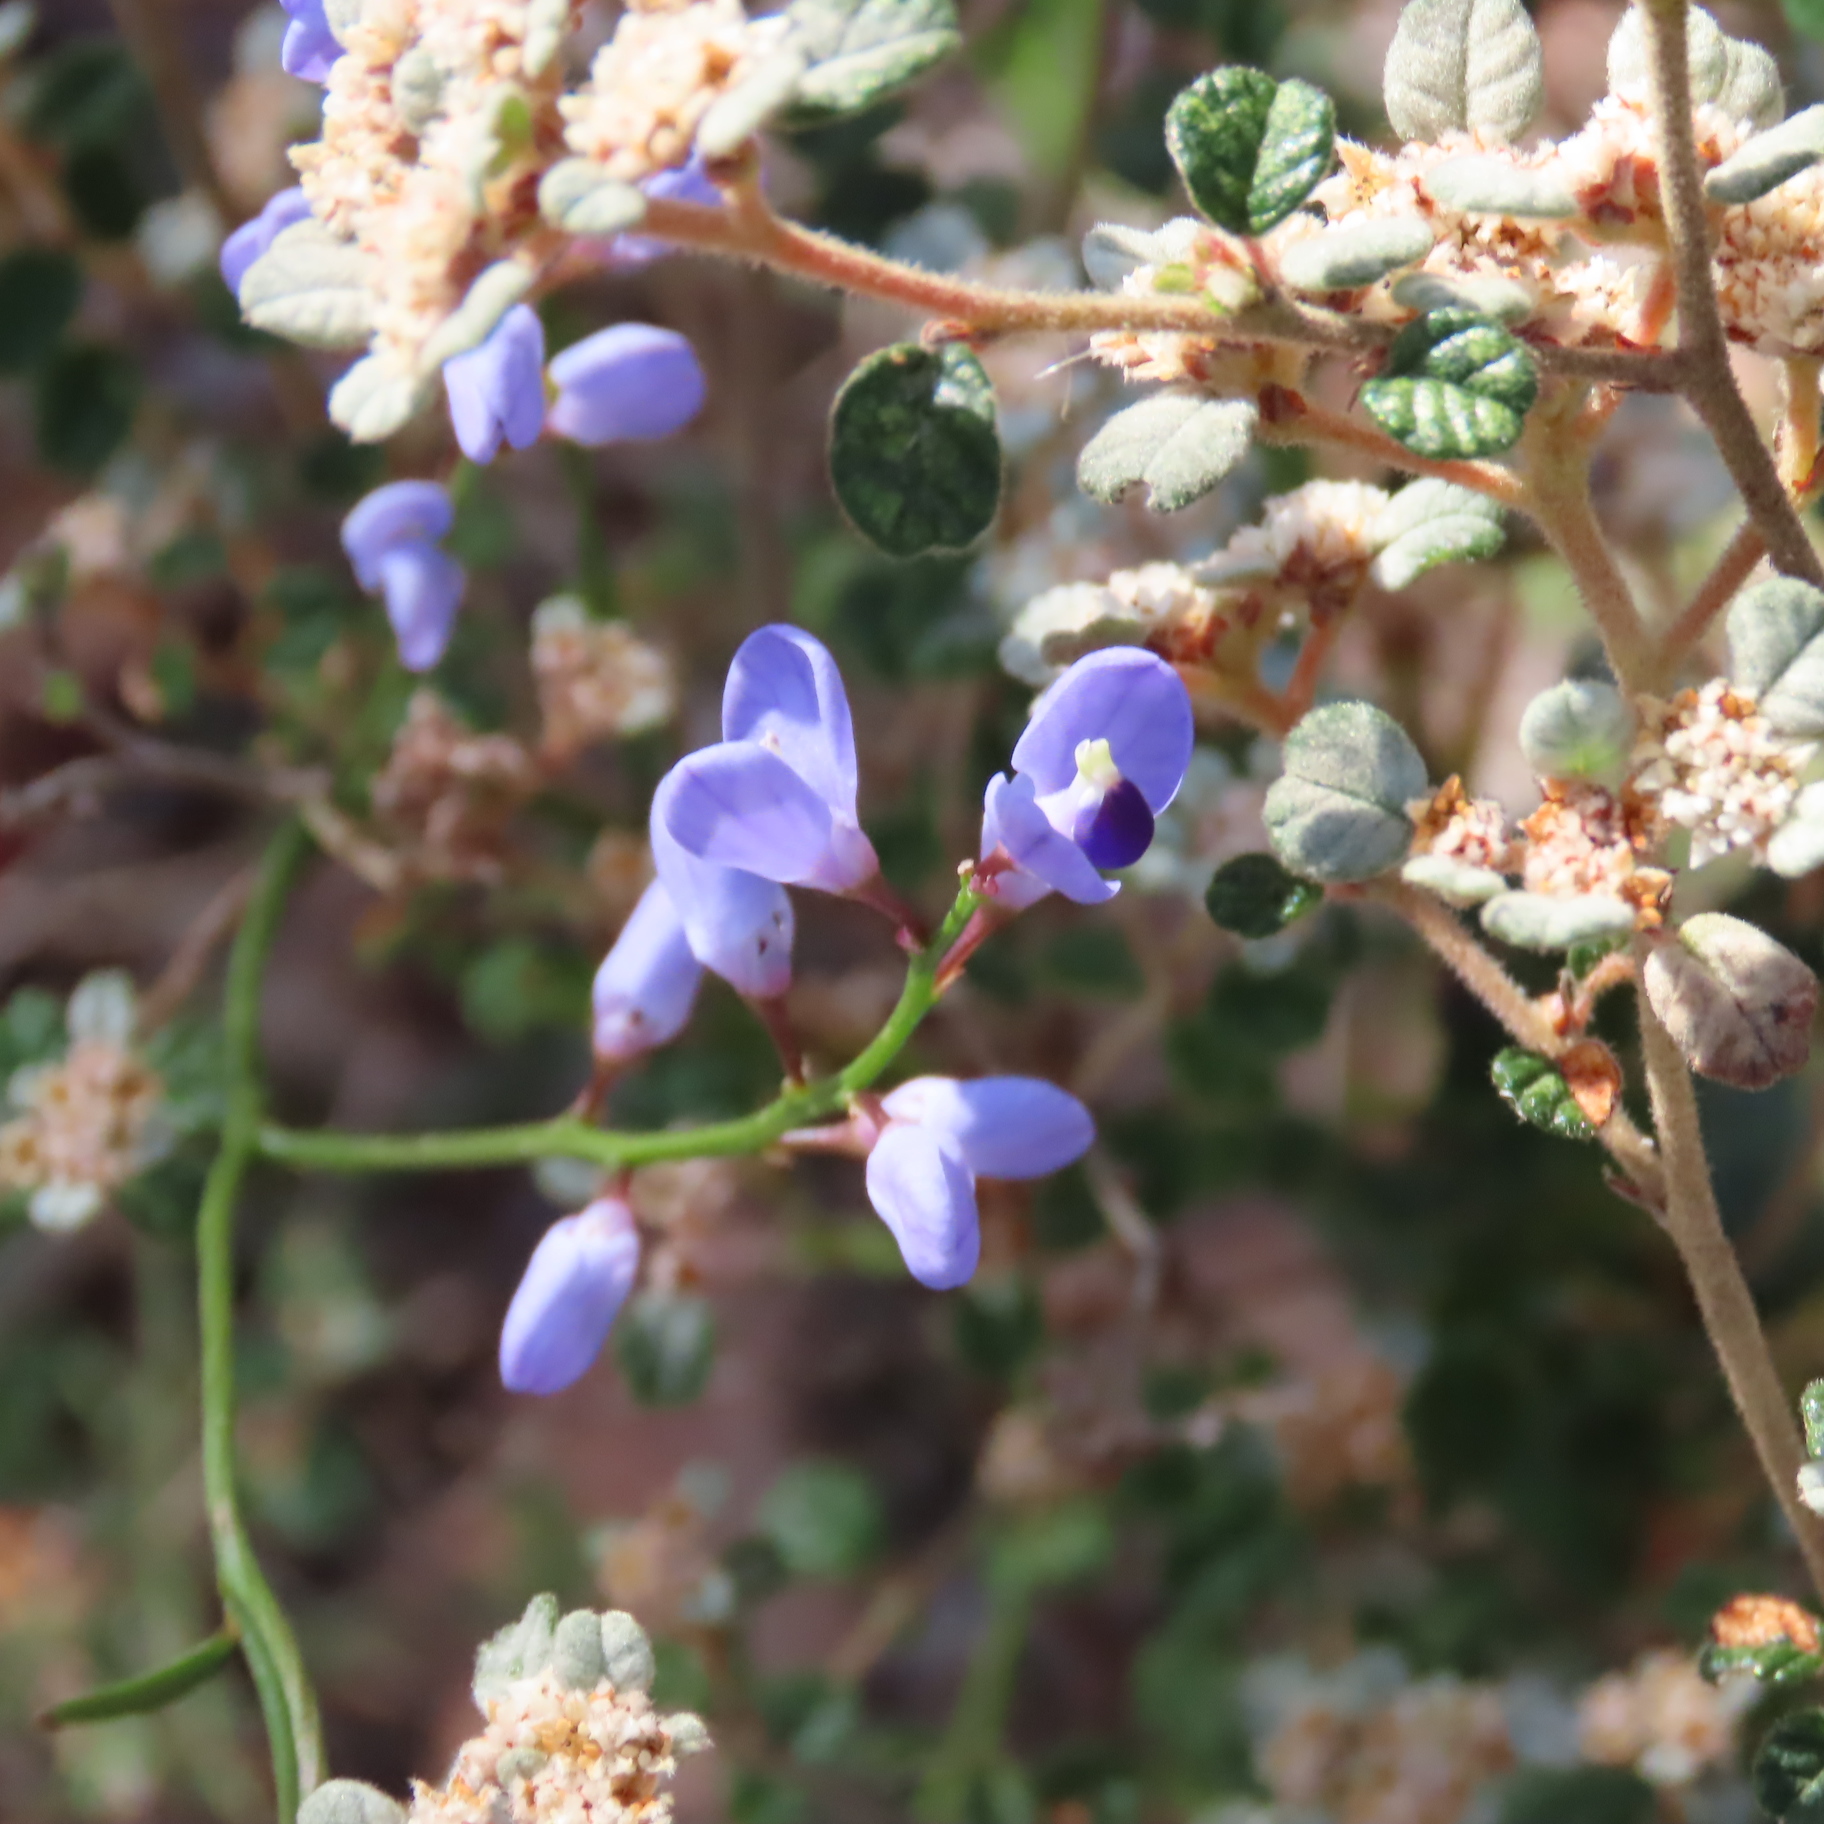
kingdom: Plantae
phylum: Tracheophyta
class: Magnoliopsida
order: Fabales
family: Polygalaceae
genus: Comesperma
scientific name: Comesperma volubile
